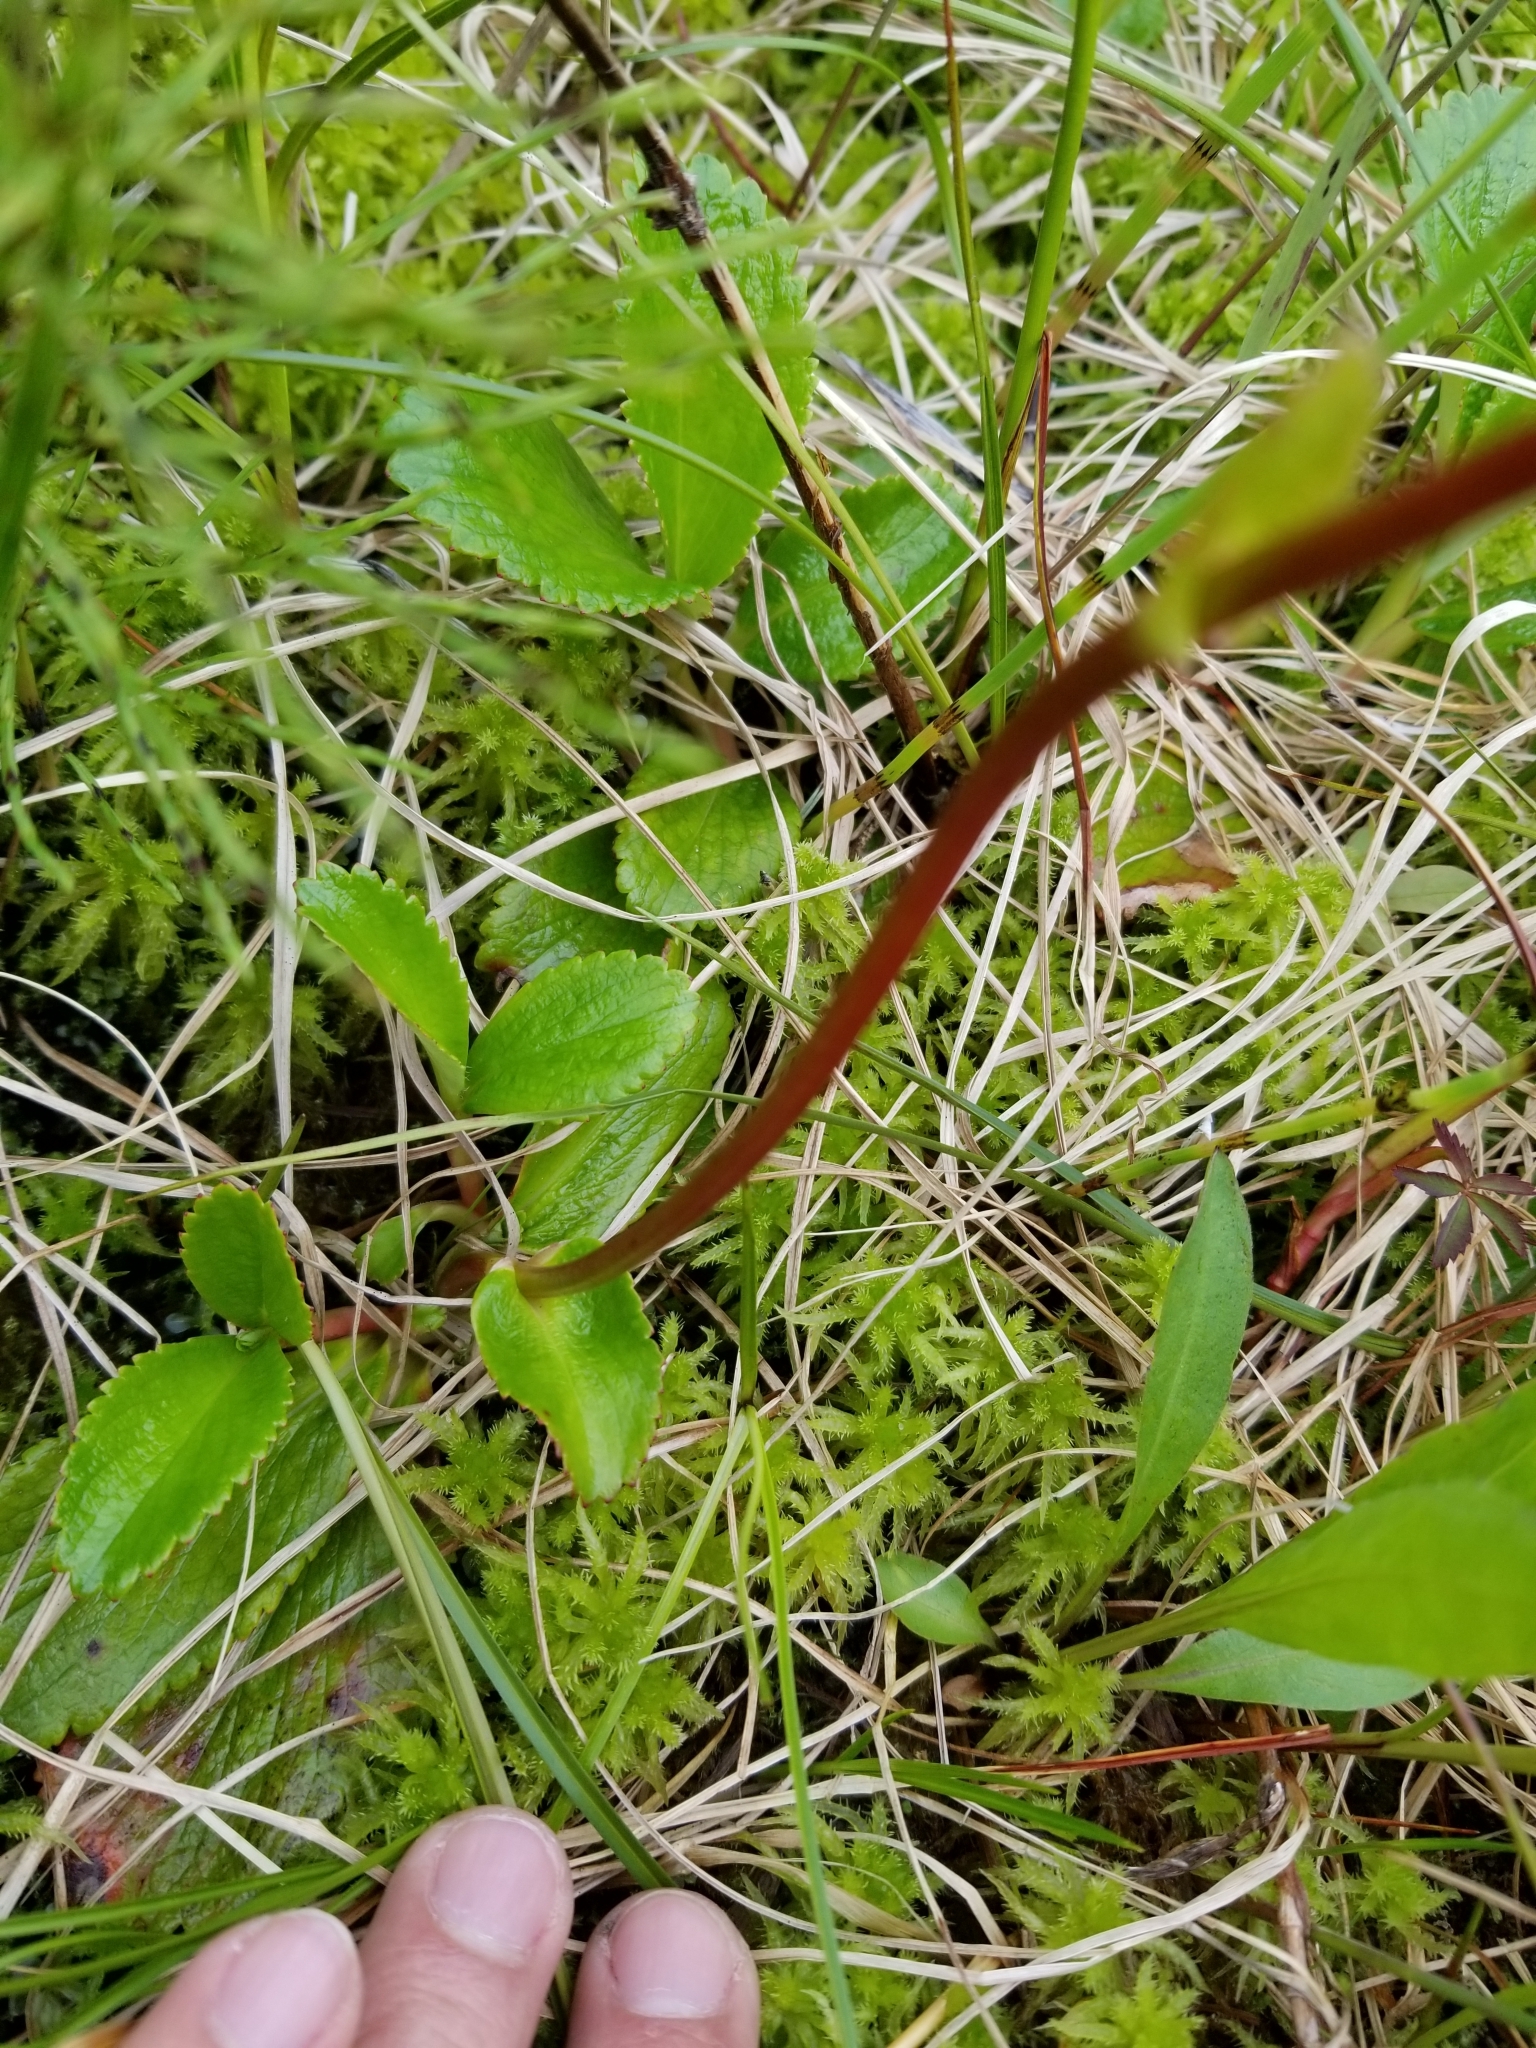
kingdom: Plantae
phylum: Tracheophyta
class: Magnoliopsida
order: Saxifragales
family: Saxifragaceae
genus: Leptarrhena
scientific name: Leptarrhena pyrolifolia
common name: Leatherleaf-saxifrage
